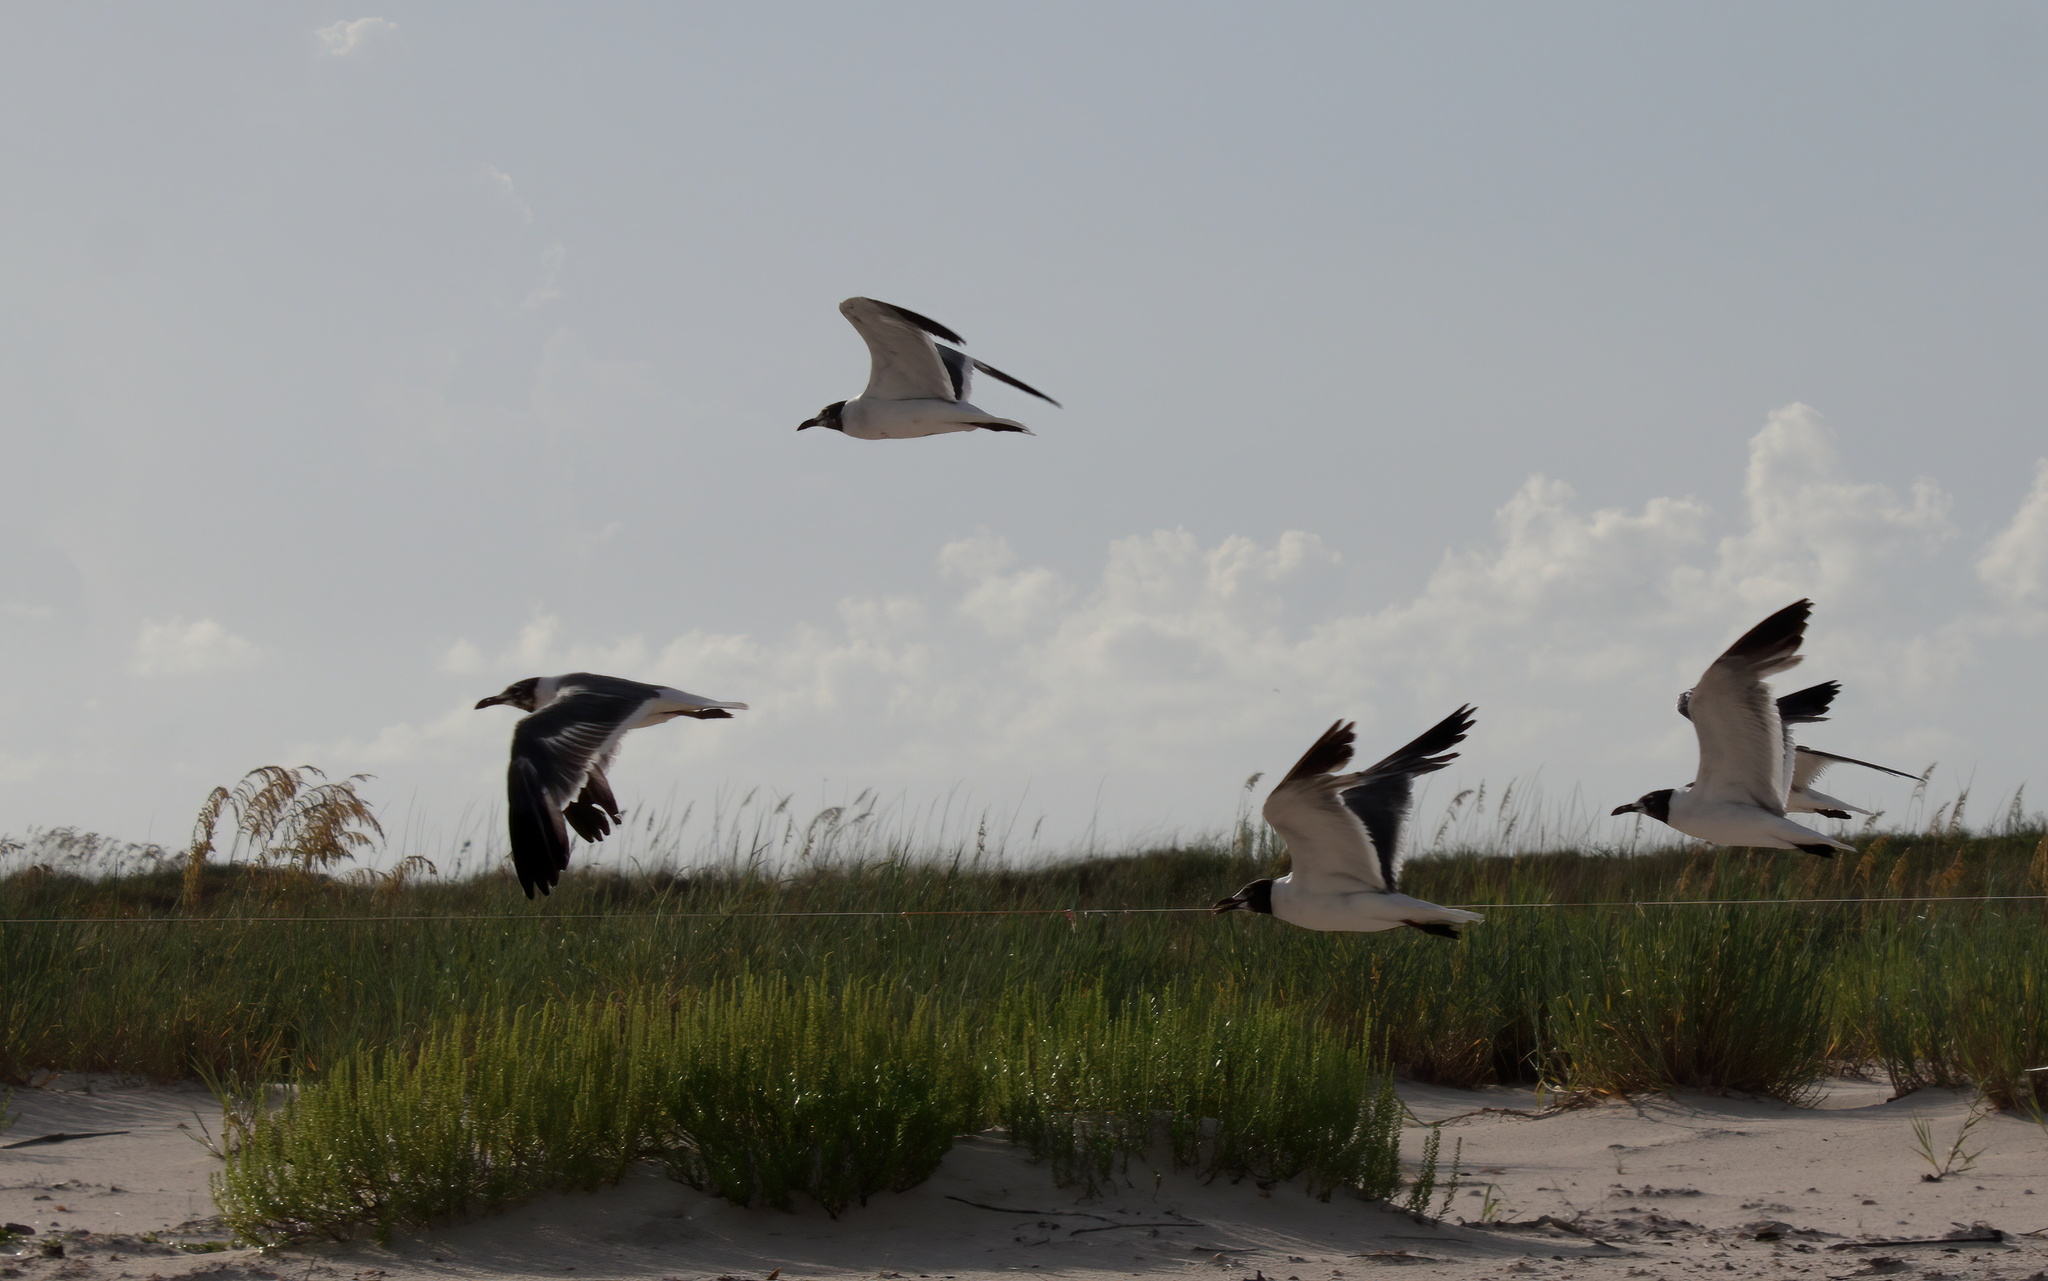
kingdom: Animalia
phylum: Chordata
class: Aves
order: Charadriiformes
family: Laridae
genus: Leucophaeus
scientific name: Leucophaeus atricilla
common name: Laughing gull
